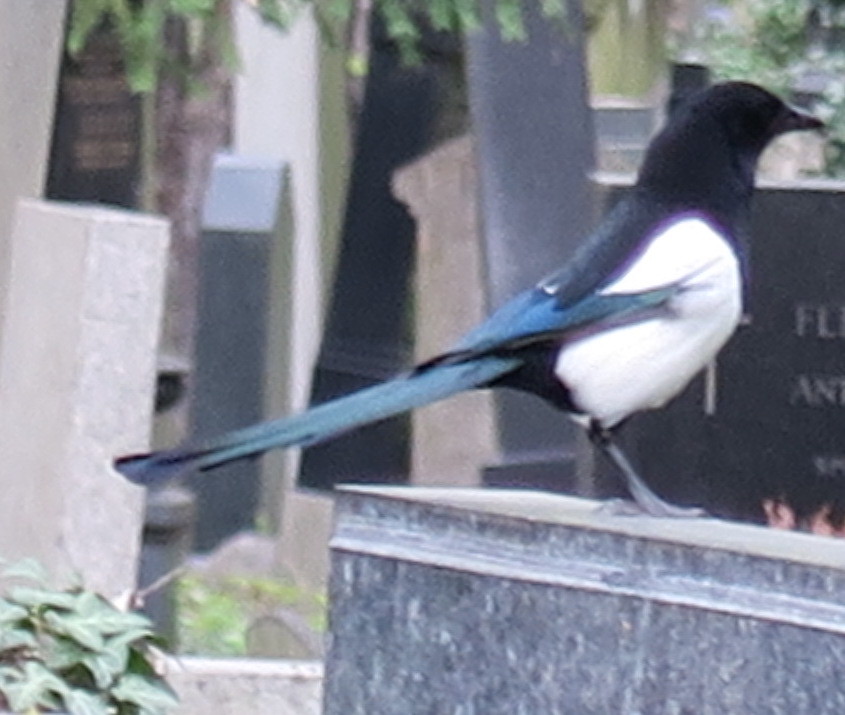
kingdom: Animalia
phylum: Chordata
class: Aves
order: Passeriformes
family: Corvidae
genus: Pica
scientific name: Pica pica
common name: Eurasian magpie
